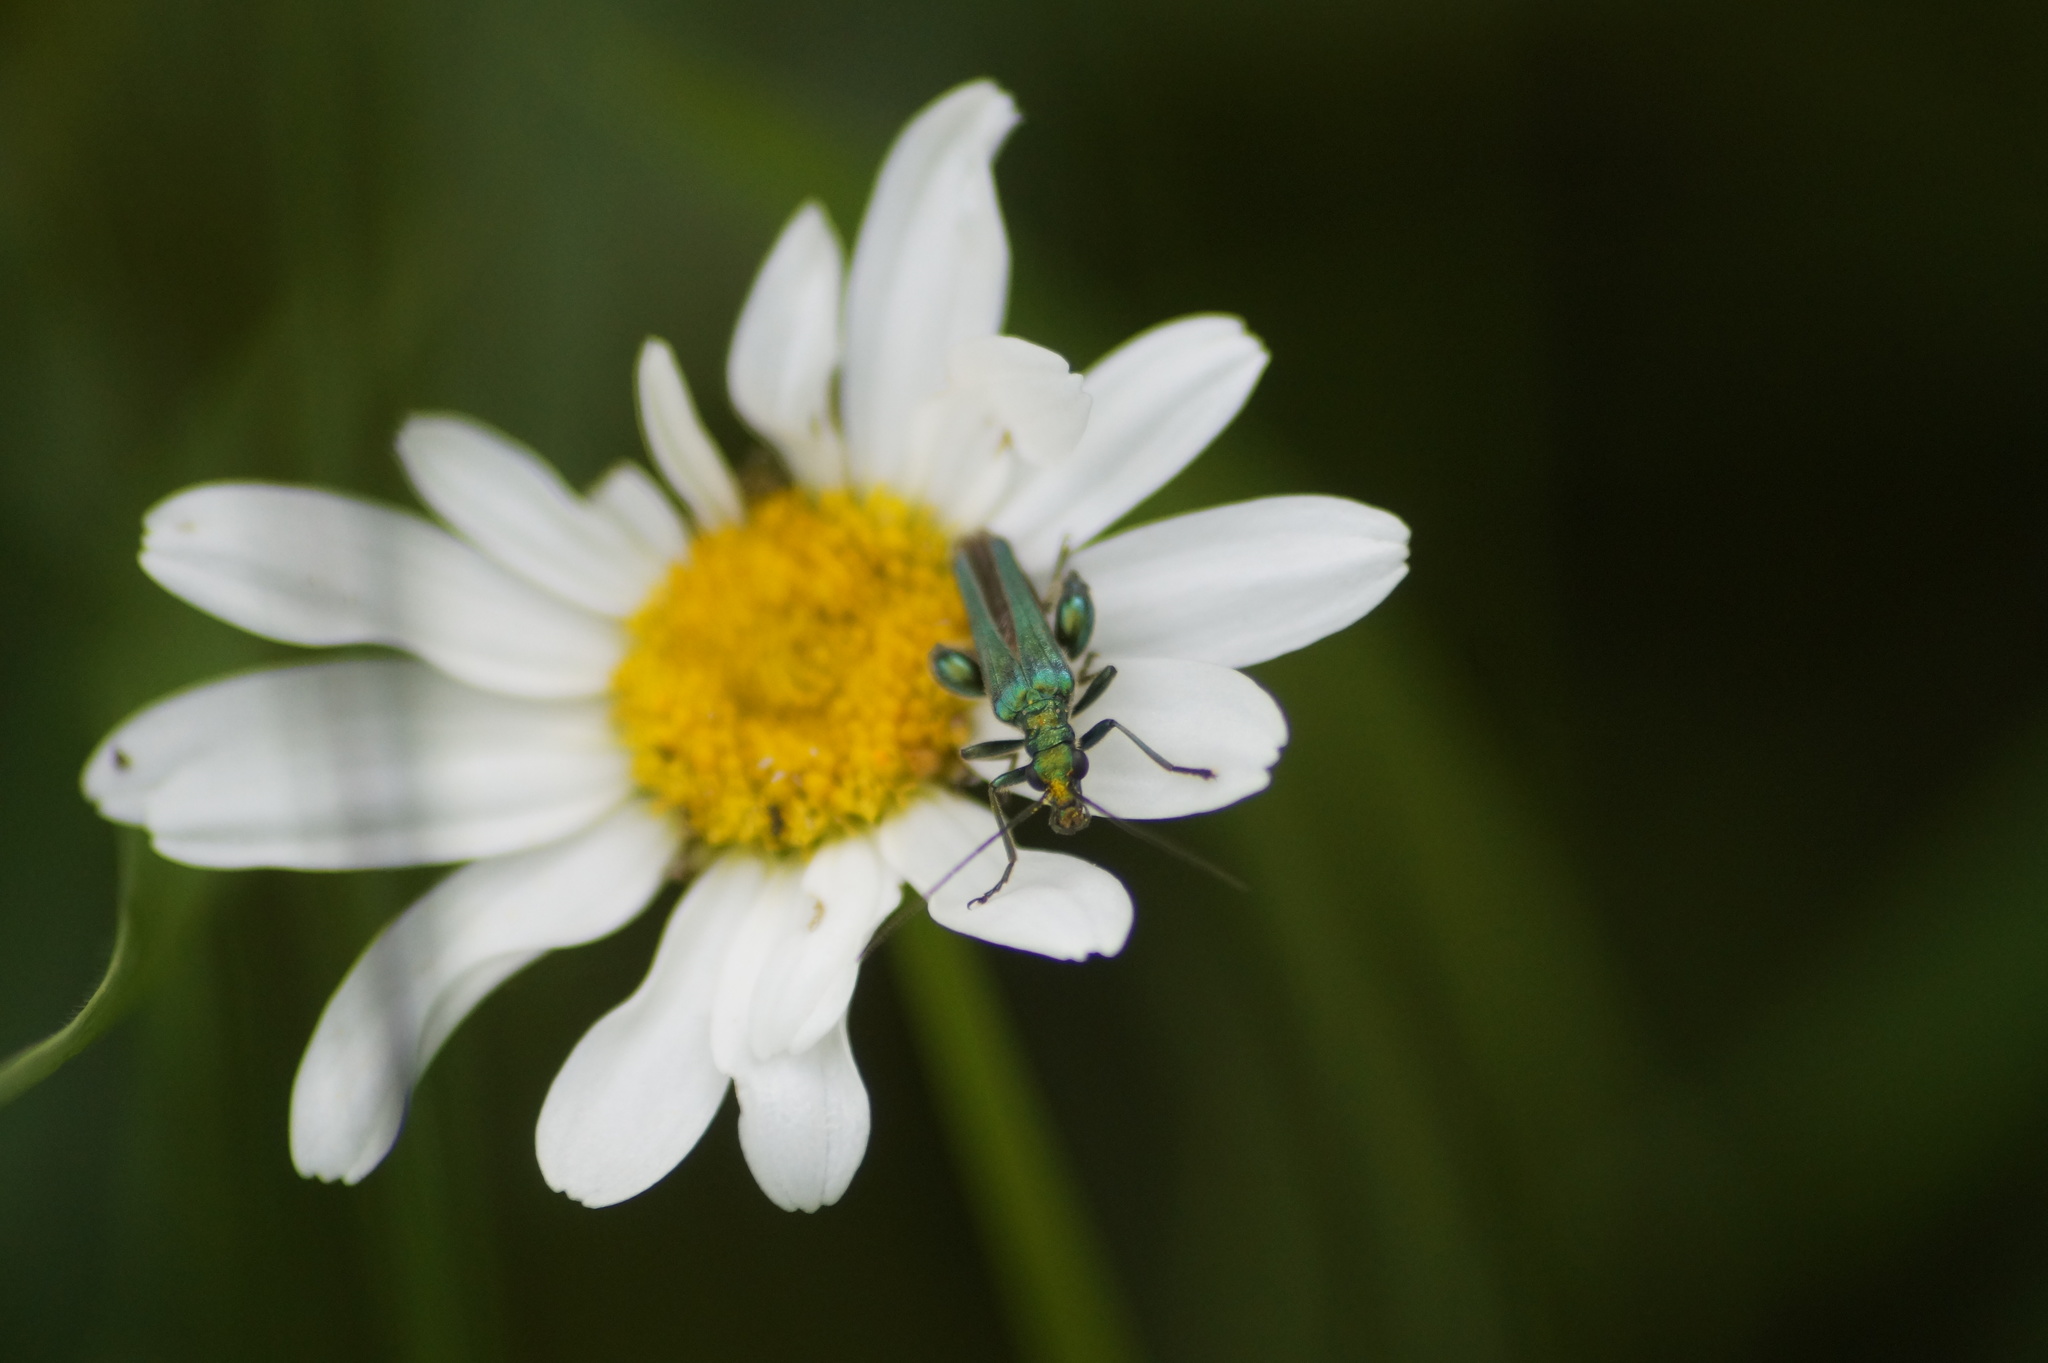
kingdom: Animalia
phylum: Arthropoda
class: Insecta
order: Coleoptera
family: Oedemeridae
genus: Oedemera
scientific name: Oedemera nobilis
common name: Swollen-thighed beetle
